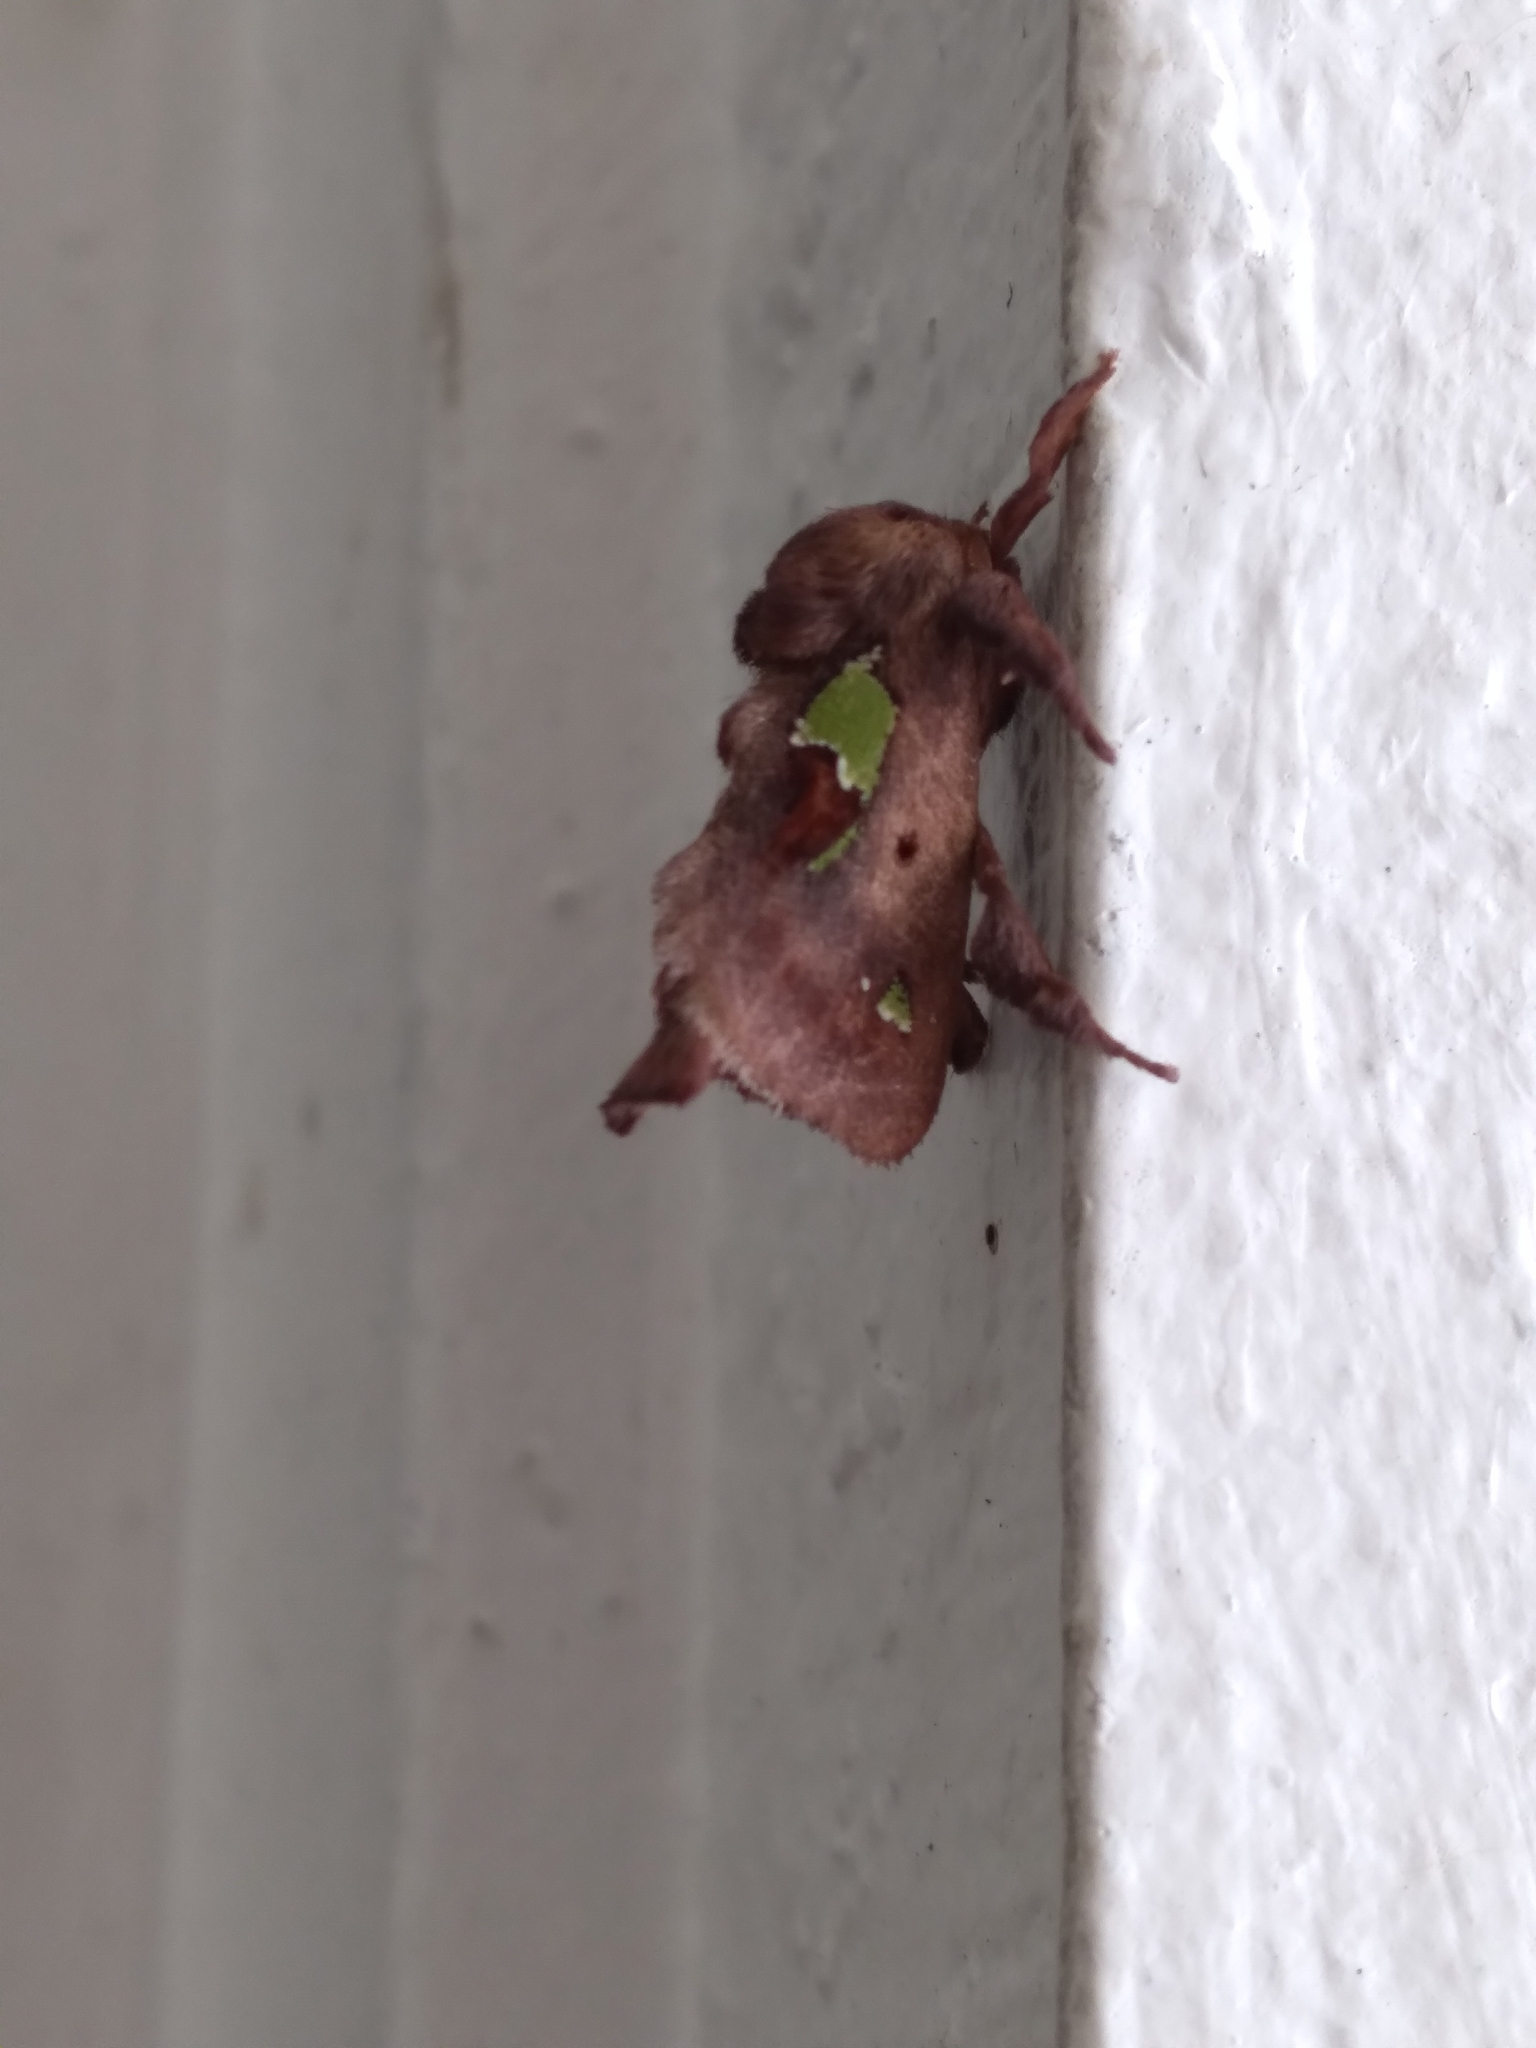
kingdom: Animalia
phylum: Arthropoda
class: Insecta
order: Lepidoptera
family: Limacodidae
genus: Euclea
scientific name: Euclea delphinii
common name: Spiny oak-slug moth
